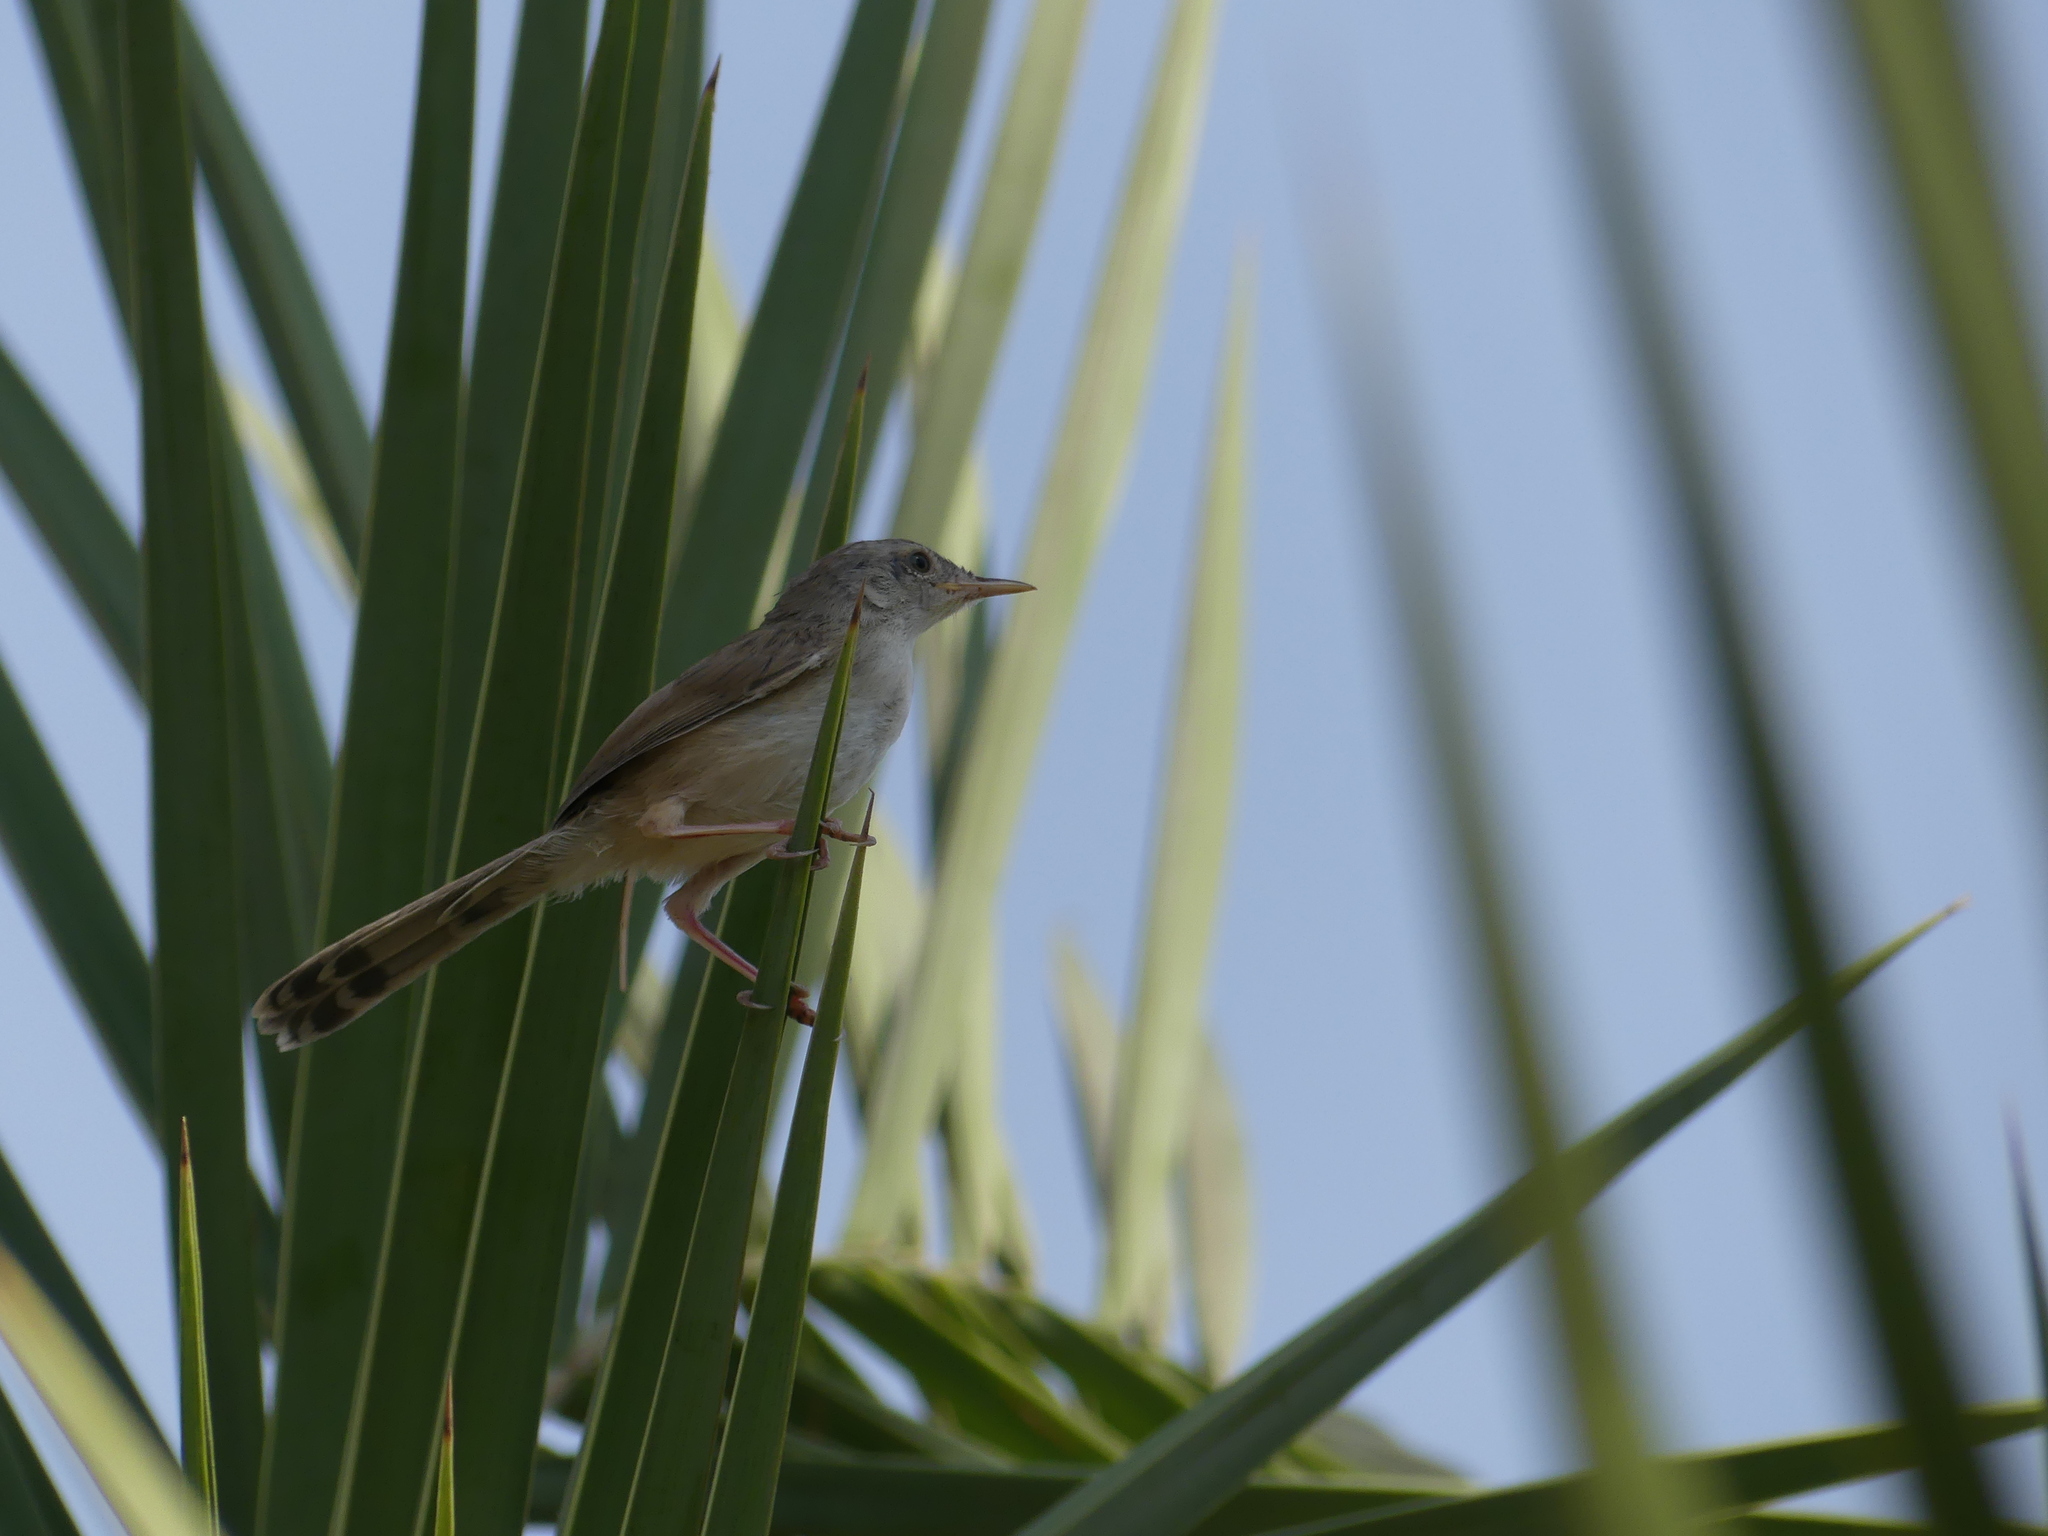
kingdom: Animalia
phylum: Chordata
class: Aves
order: Passeriformes
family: Cisticolidae
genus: Prinia
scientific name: Prinia gracilis
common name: Graceful prinia
